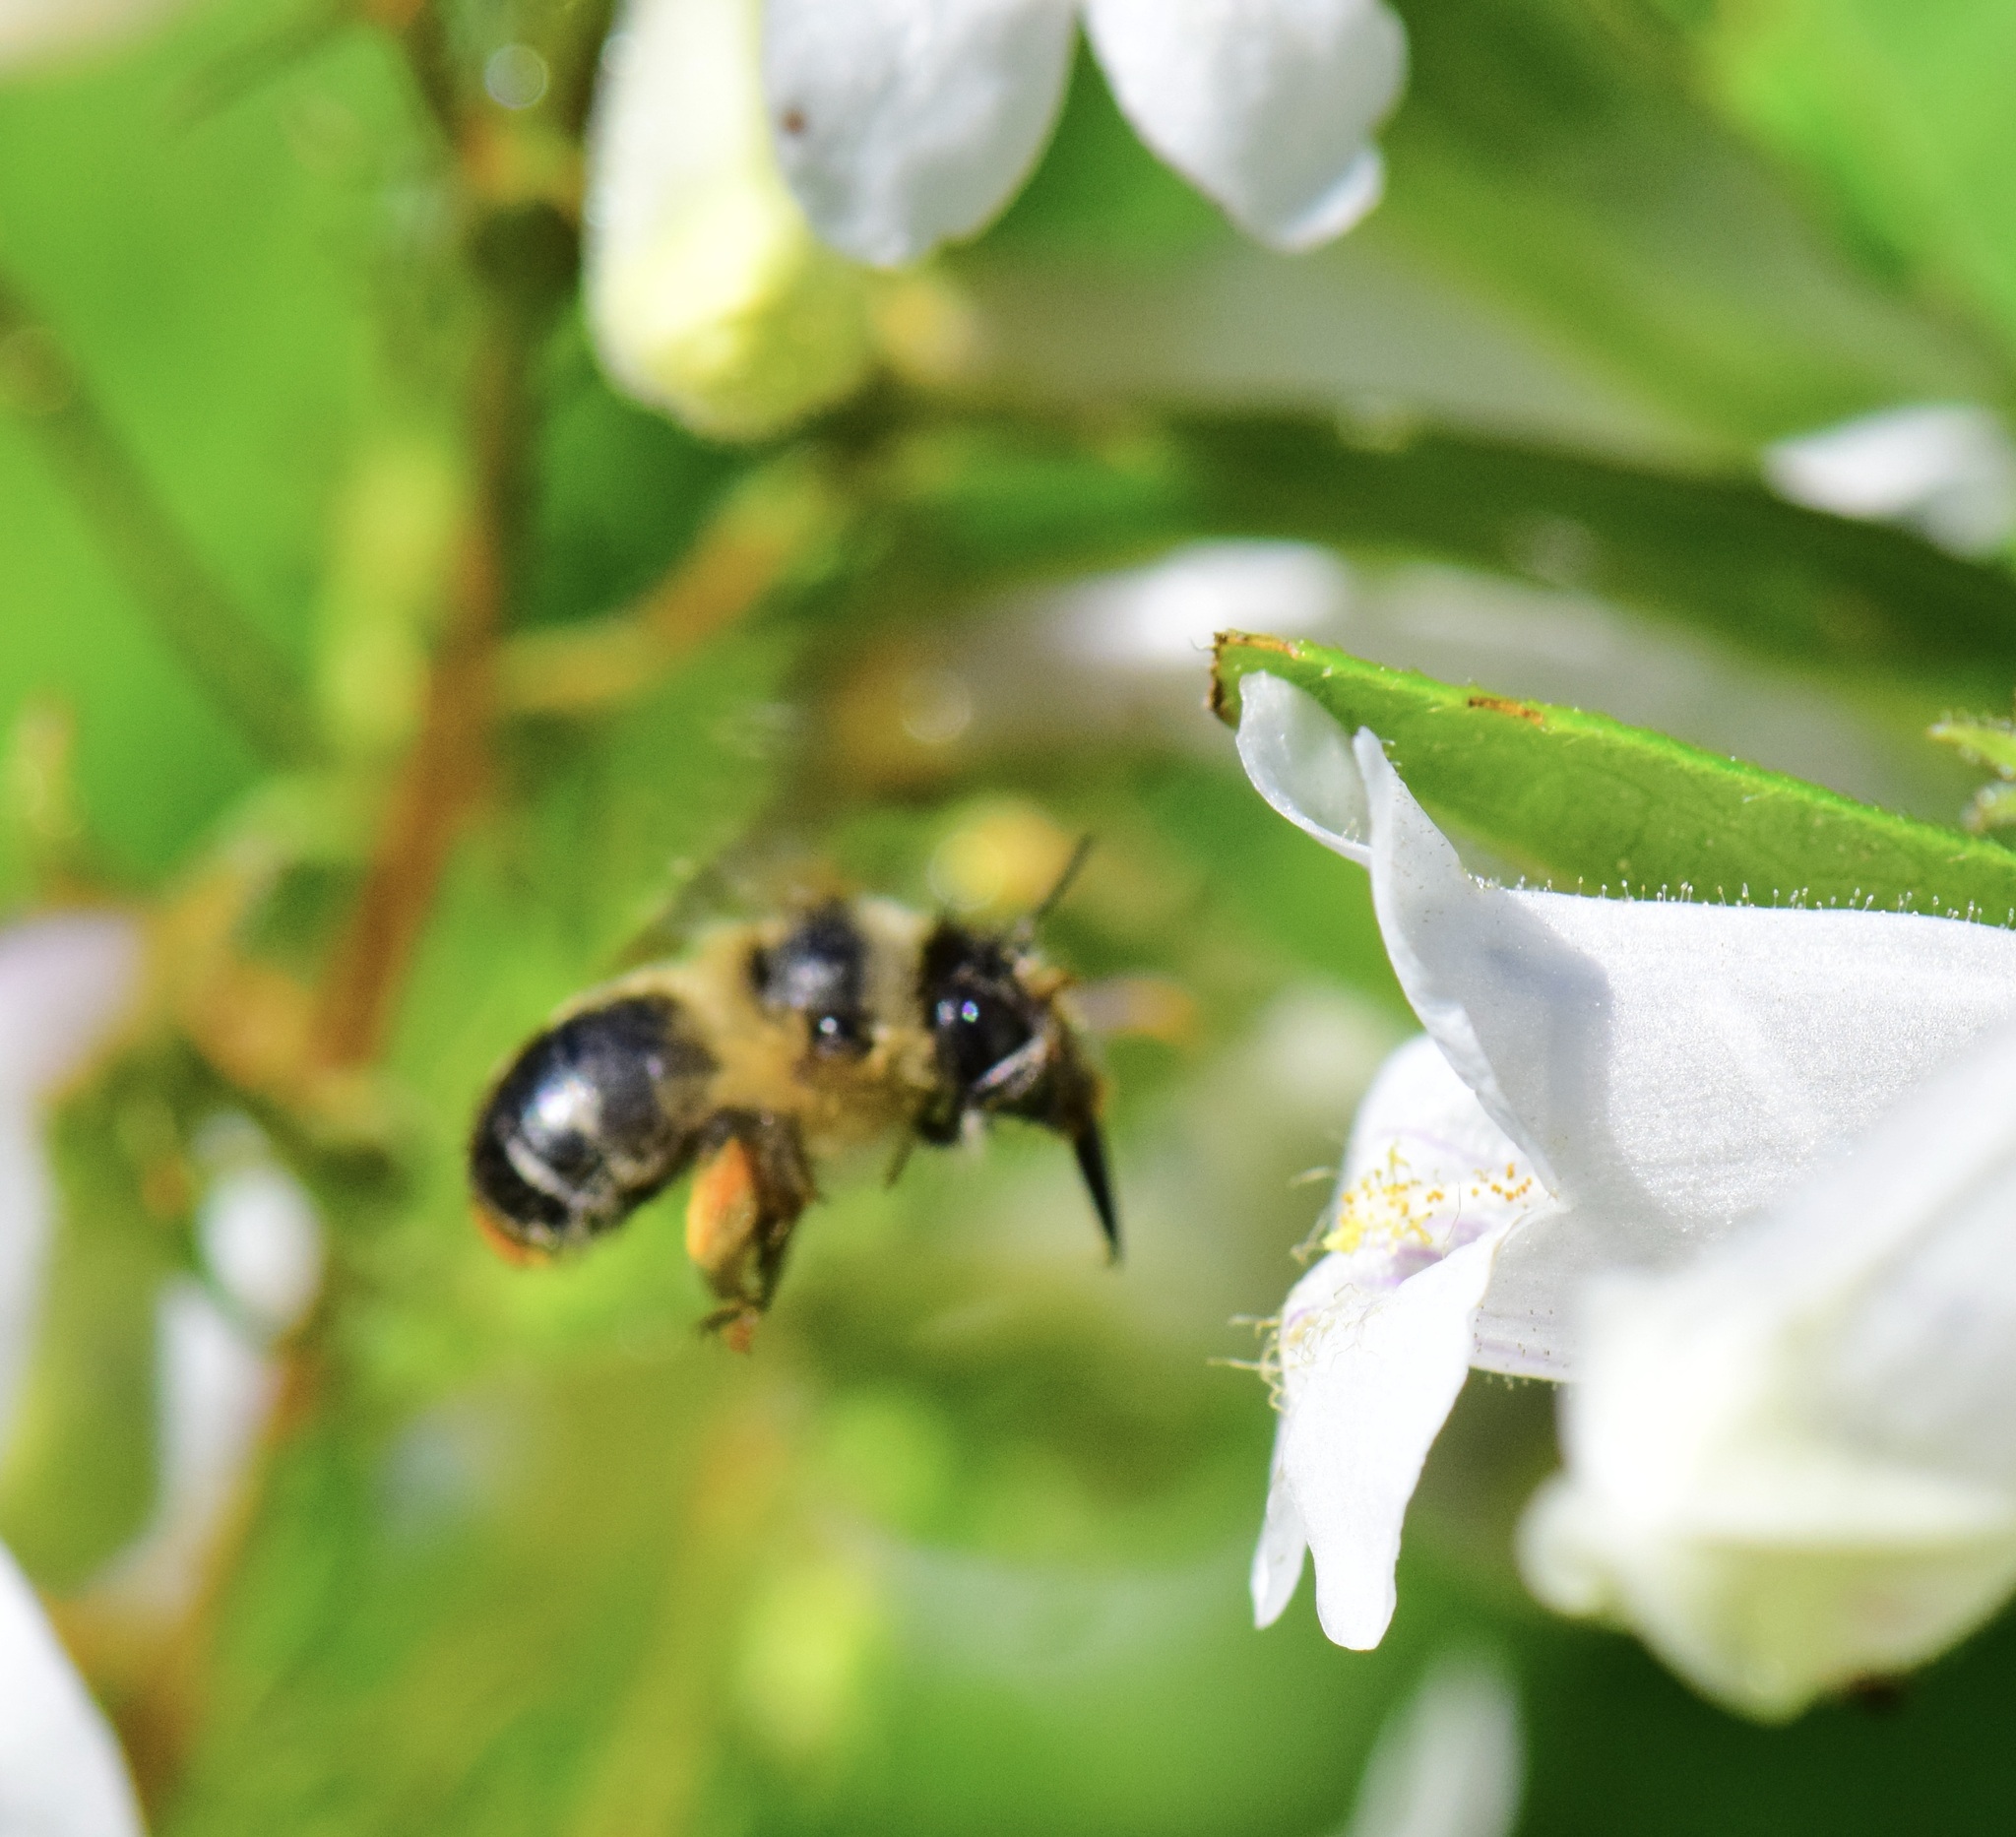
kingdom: Animalia
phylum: Arthropoda
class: Insecta
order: Hymenoptera
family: Apidae
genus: Anthophora
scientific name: Anthophora terminalis
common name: Orange-tipped wood-digger bee
